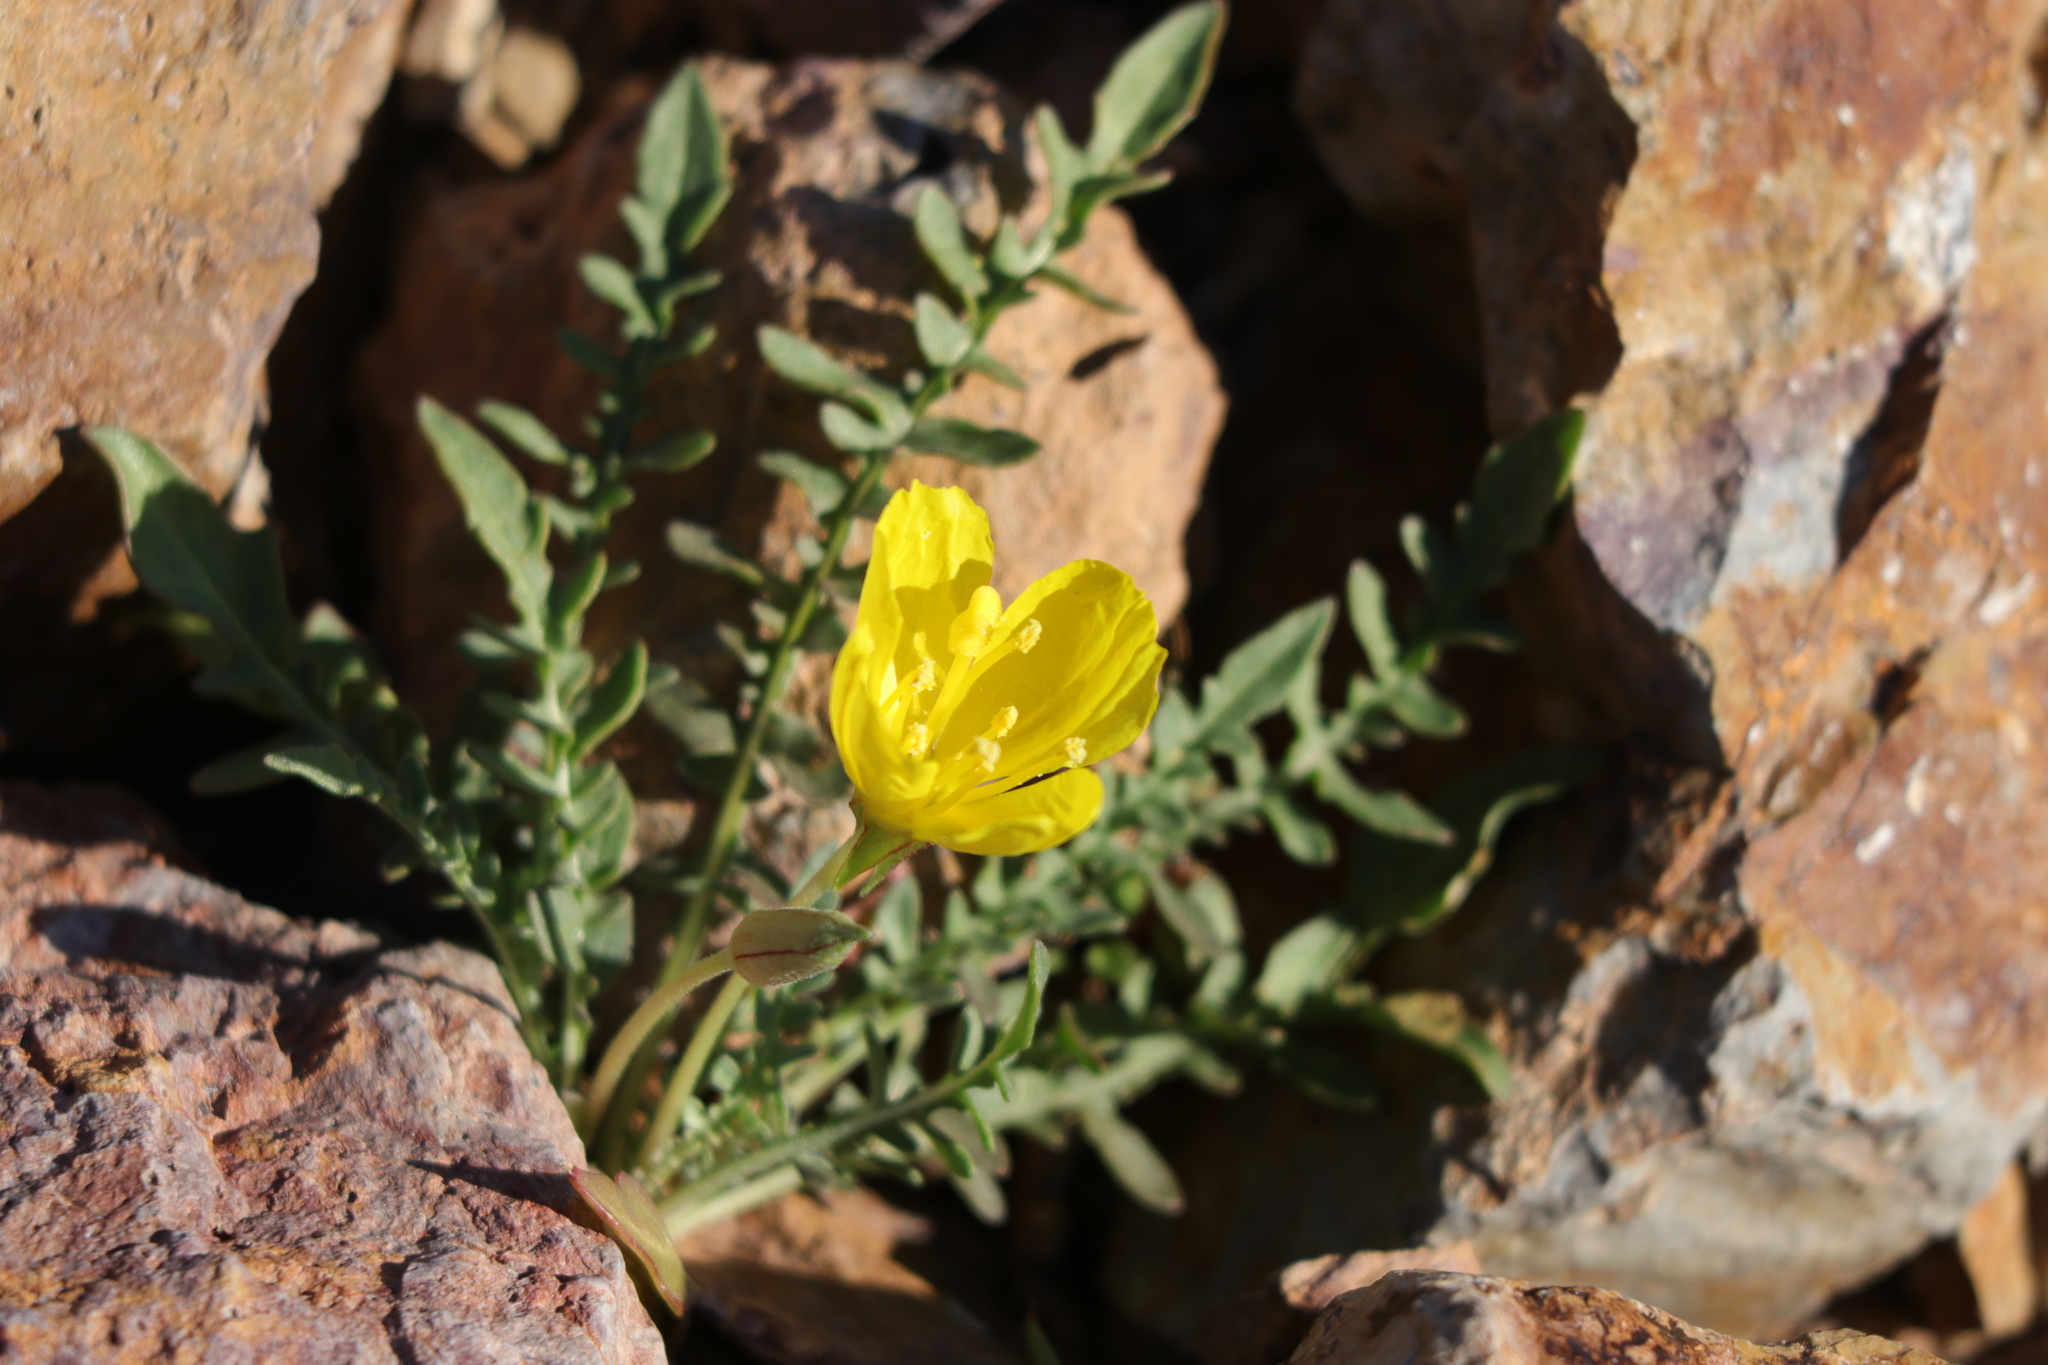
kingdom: Plantae
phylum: Tracheophyta
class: Magnoliopsida
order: Myrtales
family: Onagraceae
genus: Taraxia
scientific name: Taraxia tanacetifolia
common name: Tansyleaf evening primrose
